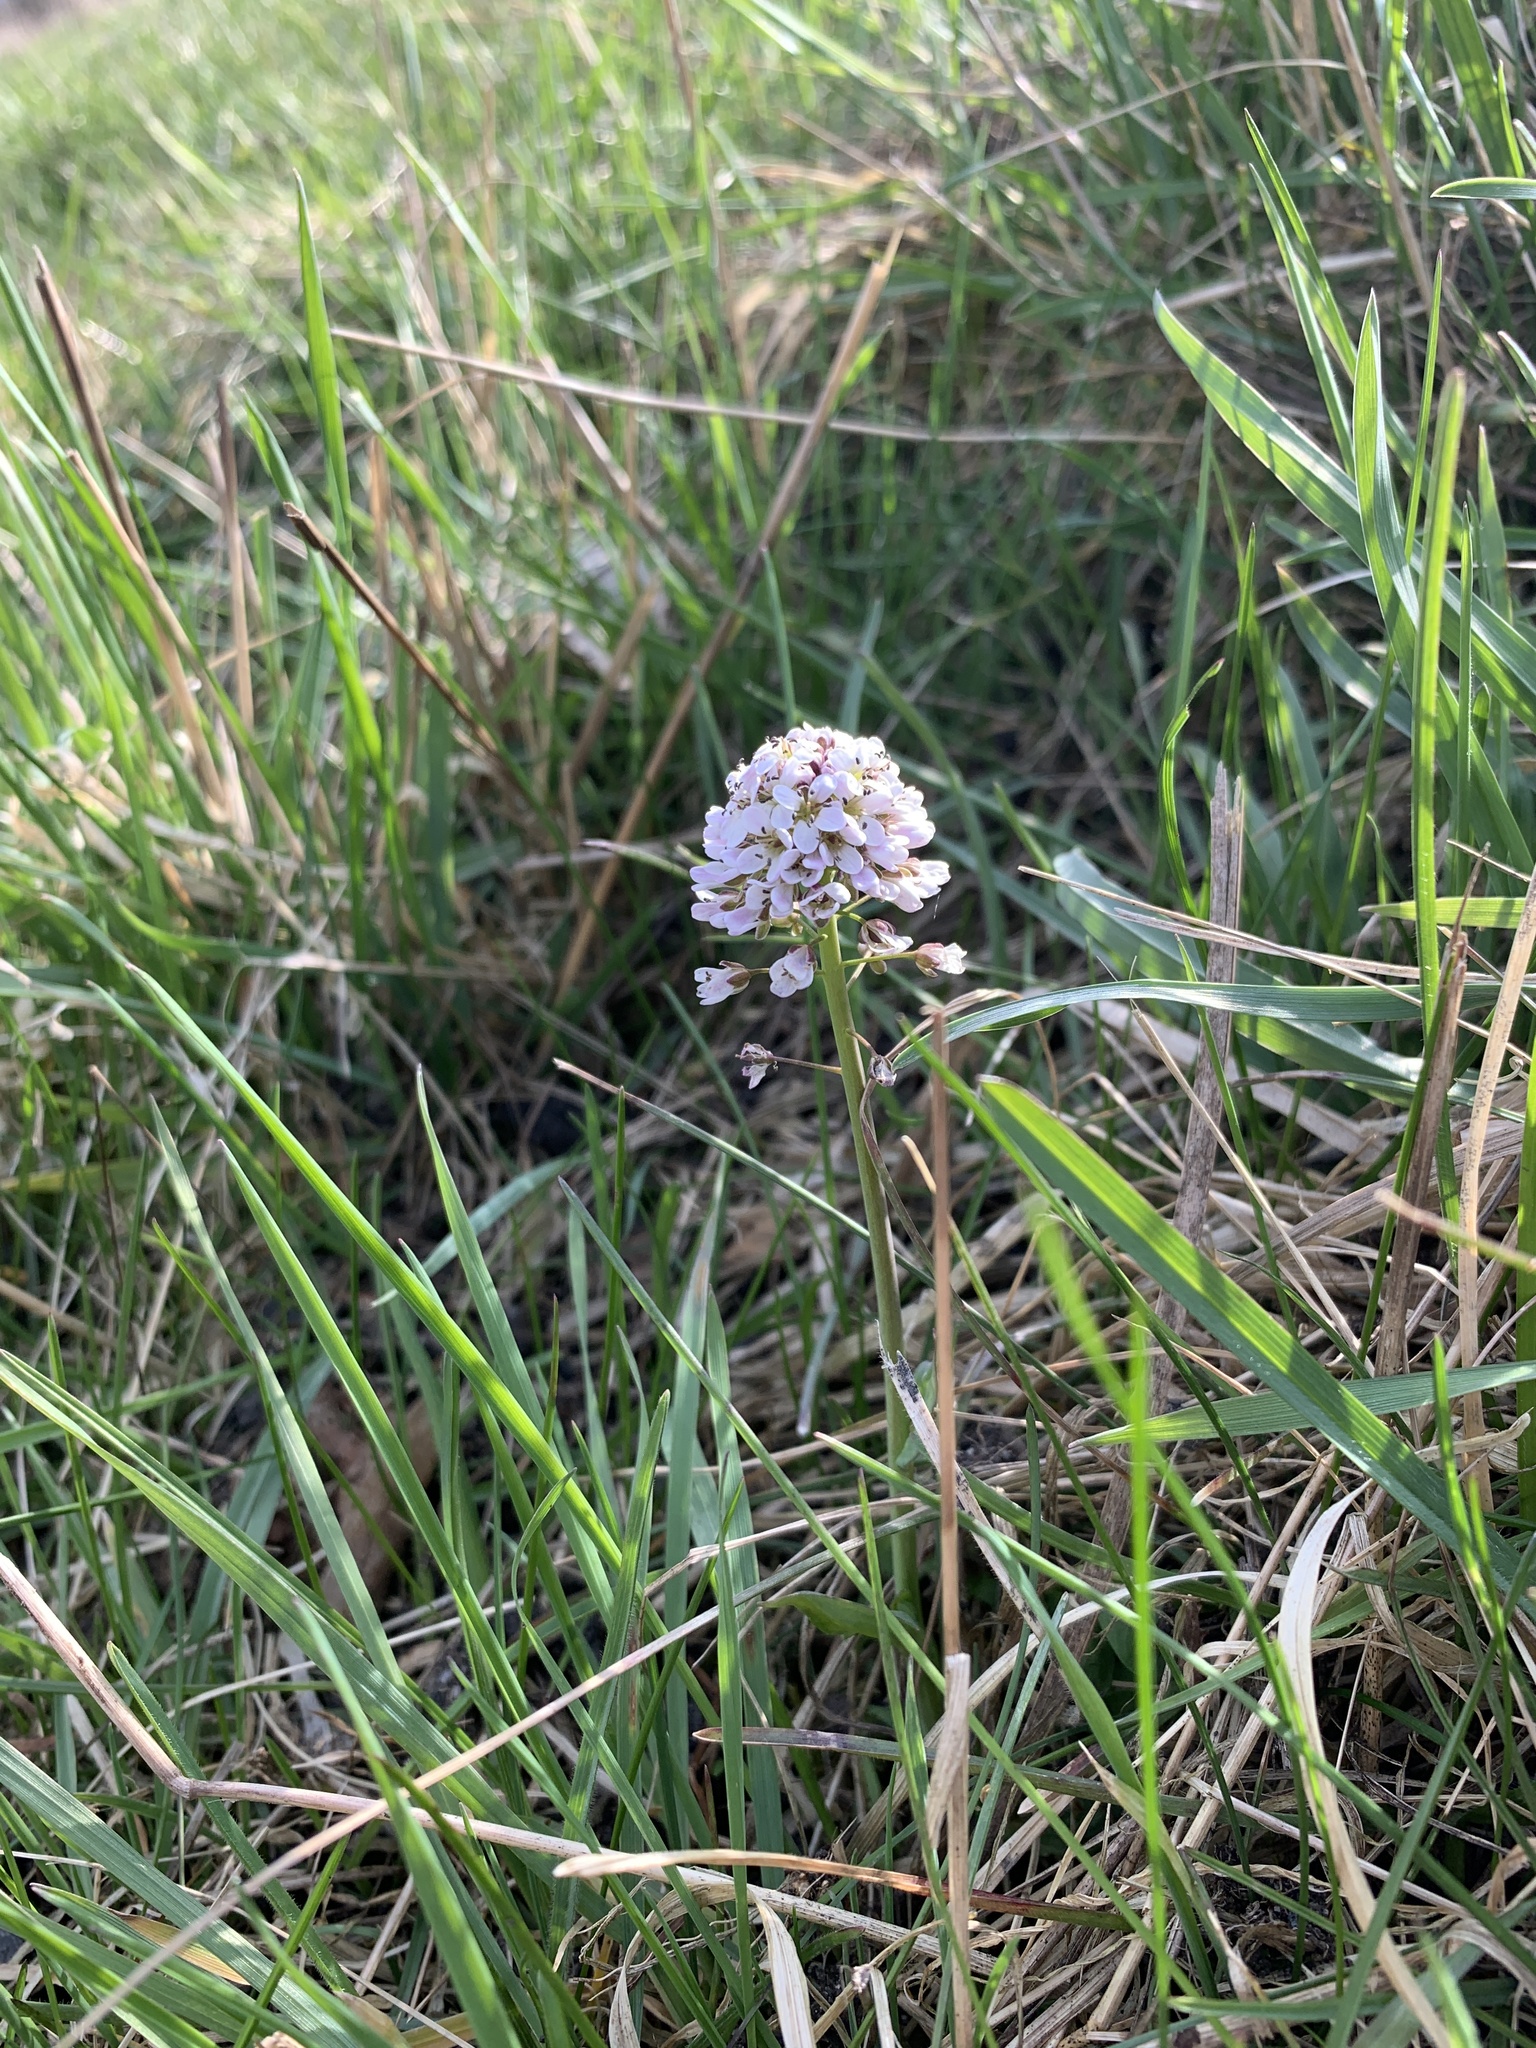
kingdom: Plantae
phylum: Tracheophyta
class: Magnoliopsida
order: Brassicales
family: Brassicaceae
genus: Noccaea
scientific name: Noccaea caerulescens
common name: Alpine pennycress
